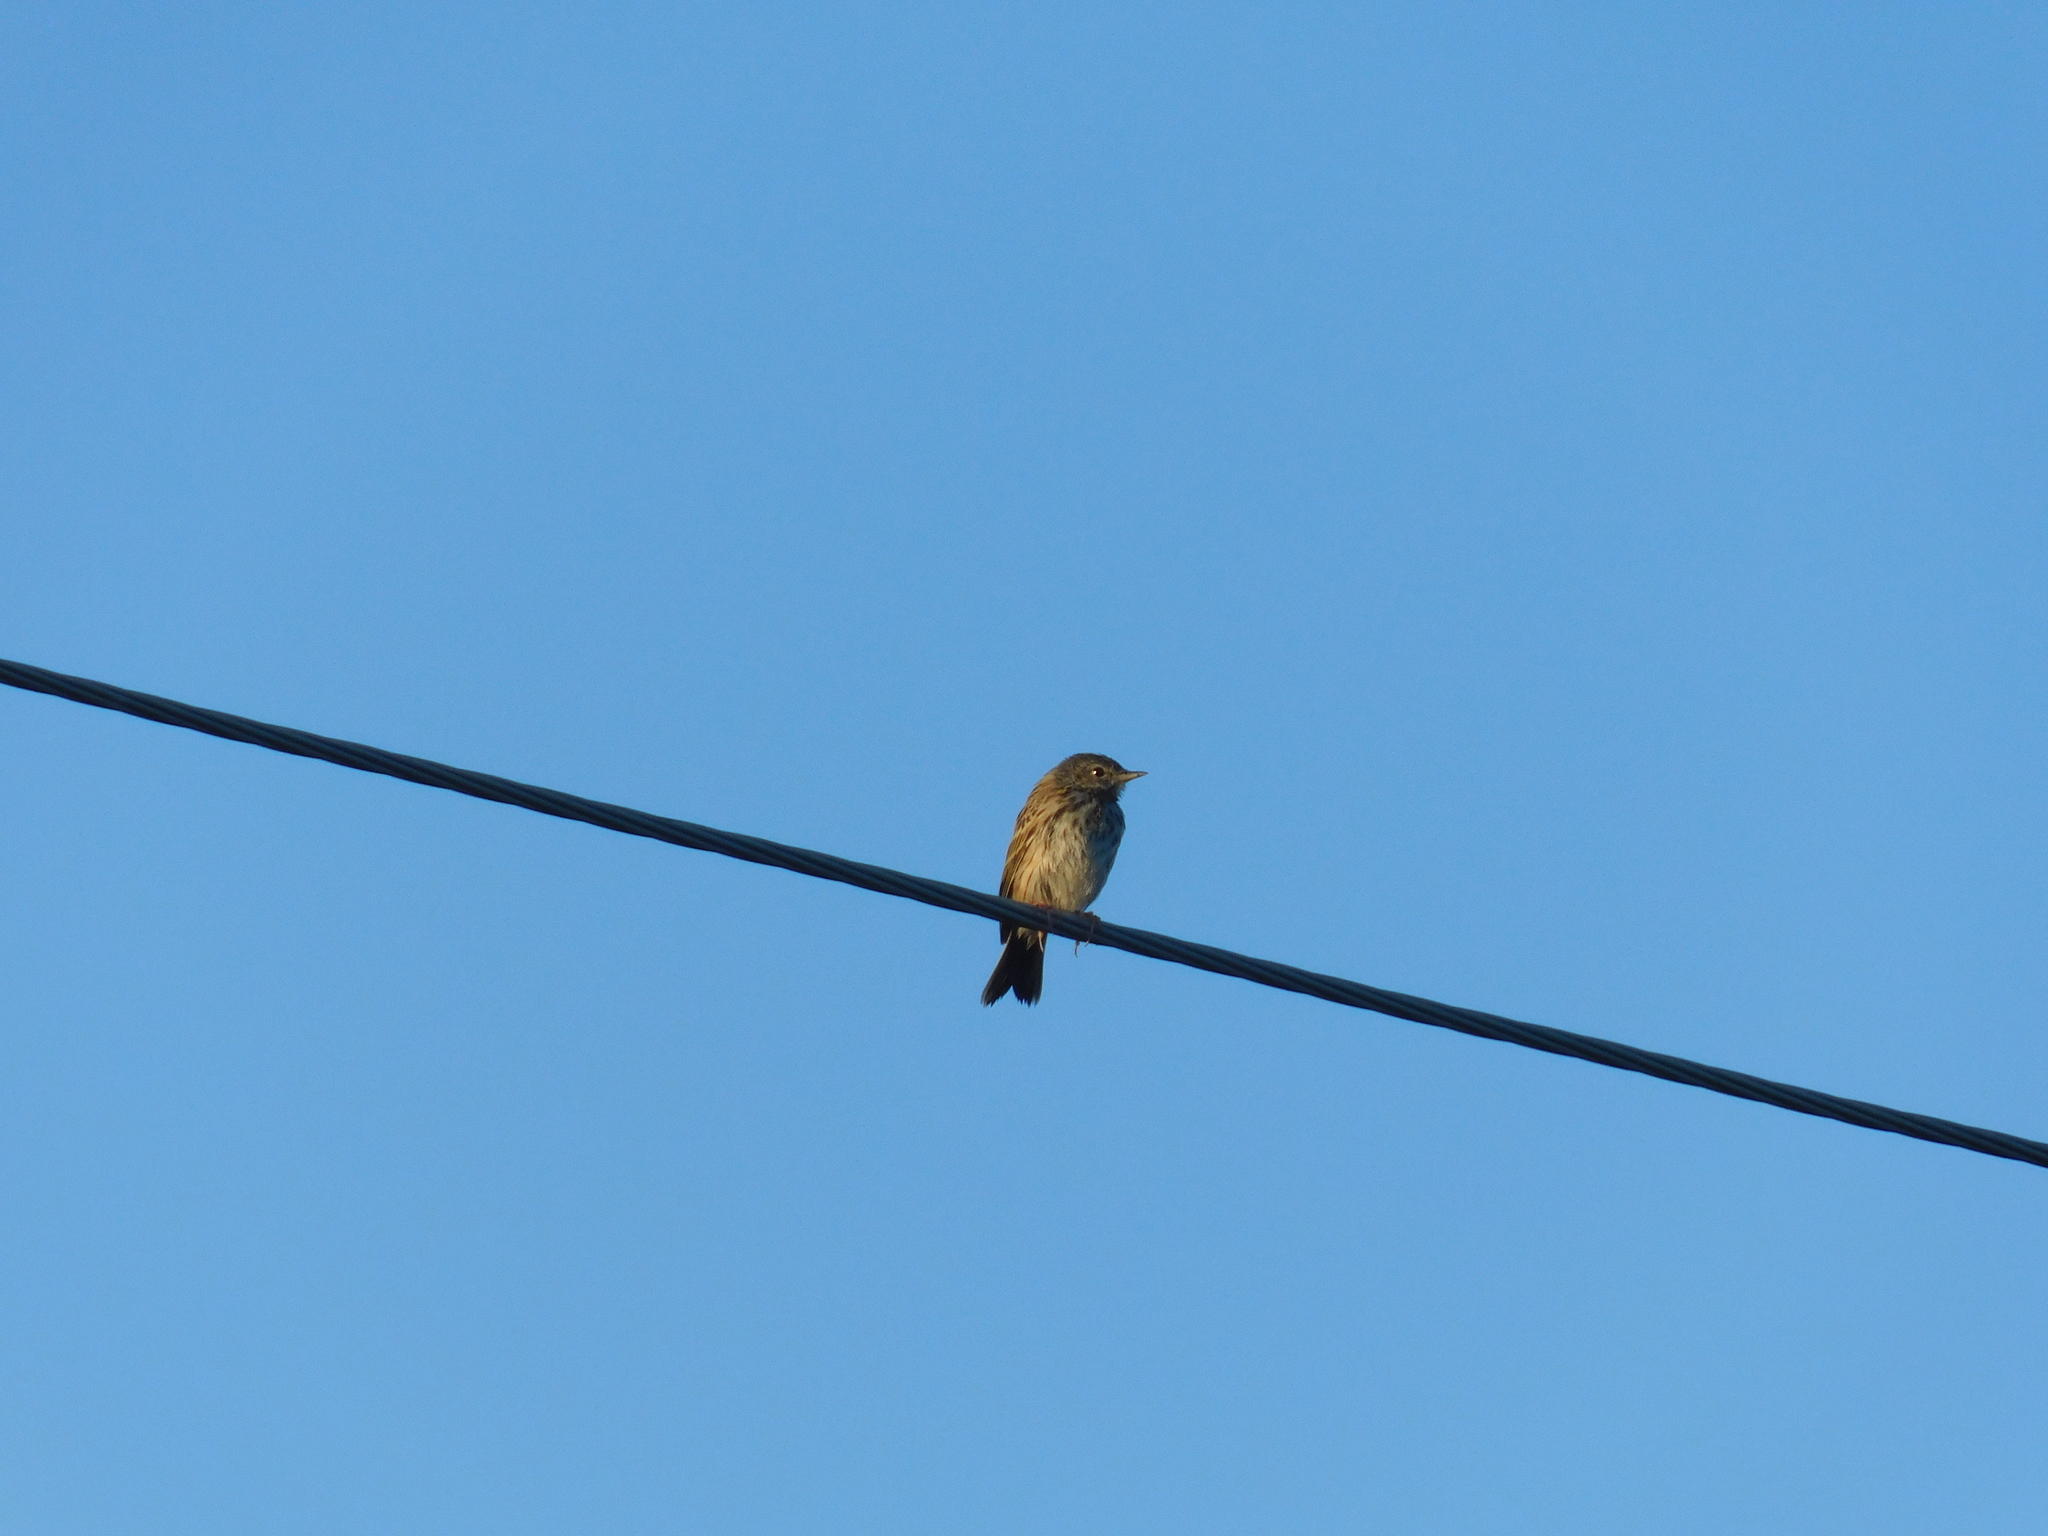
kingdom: Animalia
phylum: Chordata
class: Aves
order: Passeriformes
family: Motacillidae
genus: Anthus
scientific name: Anthus trivialis
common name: Tree pipit
